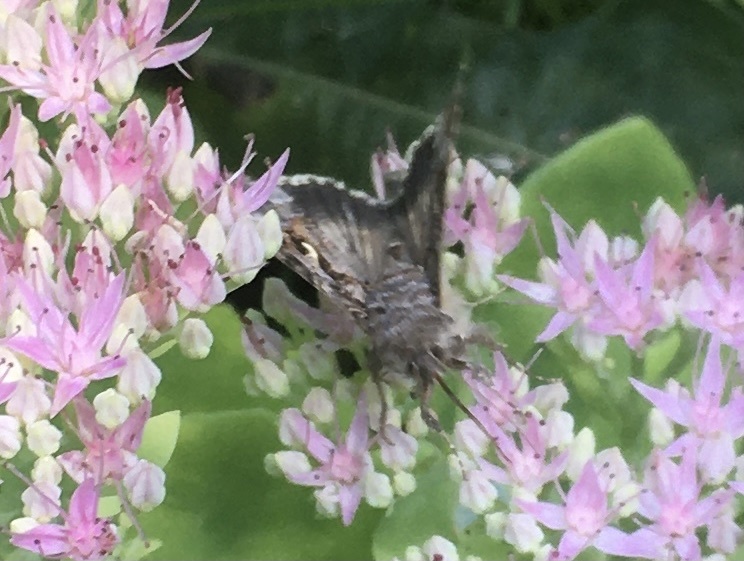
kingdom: Animalia
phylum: Arthropoda
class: Insecta
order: Lepidoptera
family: Noctuidae
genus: Autographa
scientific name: Autographa gamma
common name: Silver y
